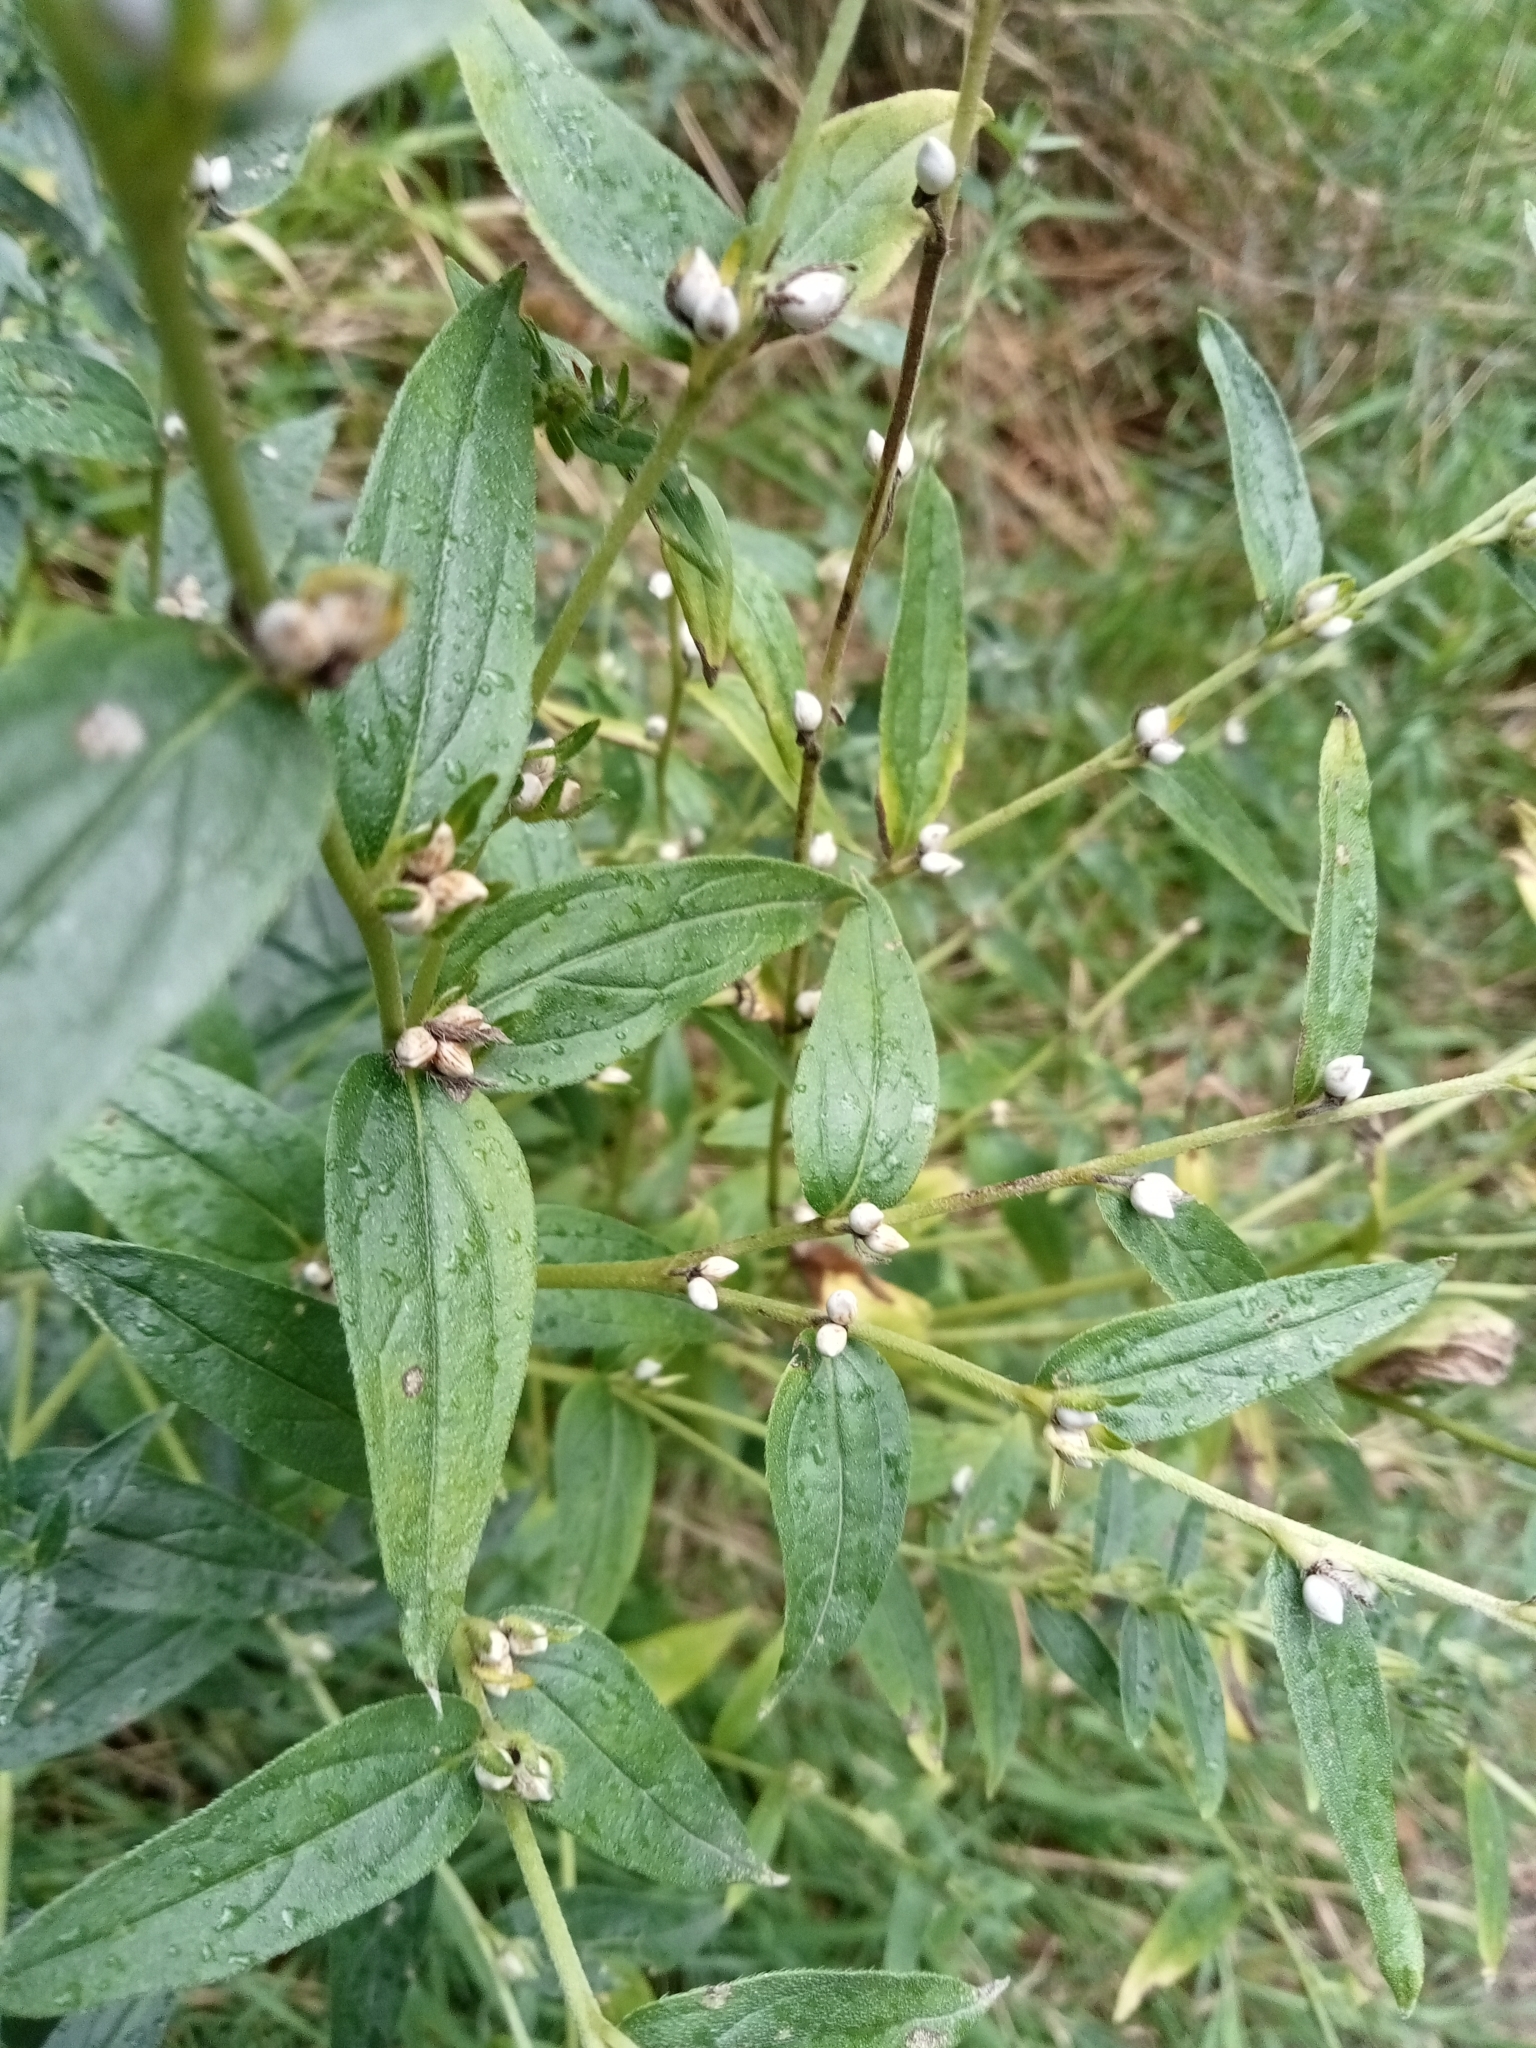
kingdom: Plantae
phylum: Tracheophyta
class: Magnoliopsida
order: Boraginales
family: Boraginaceae
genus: Lithospermum
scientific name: Lithospermum officinale
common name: Common gromwell
